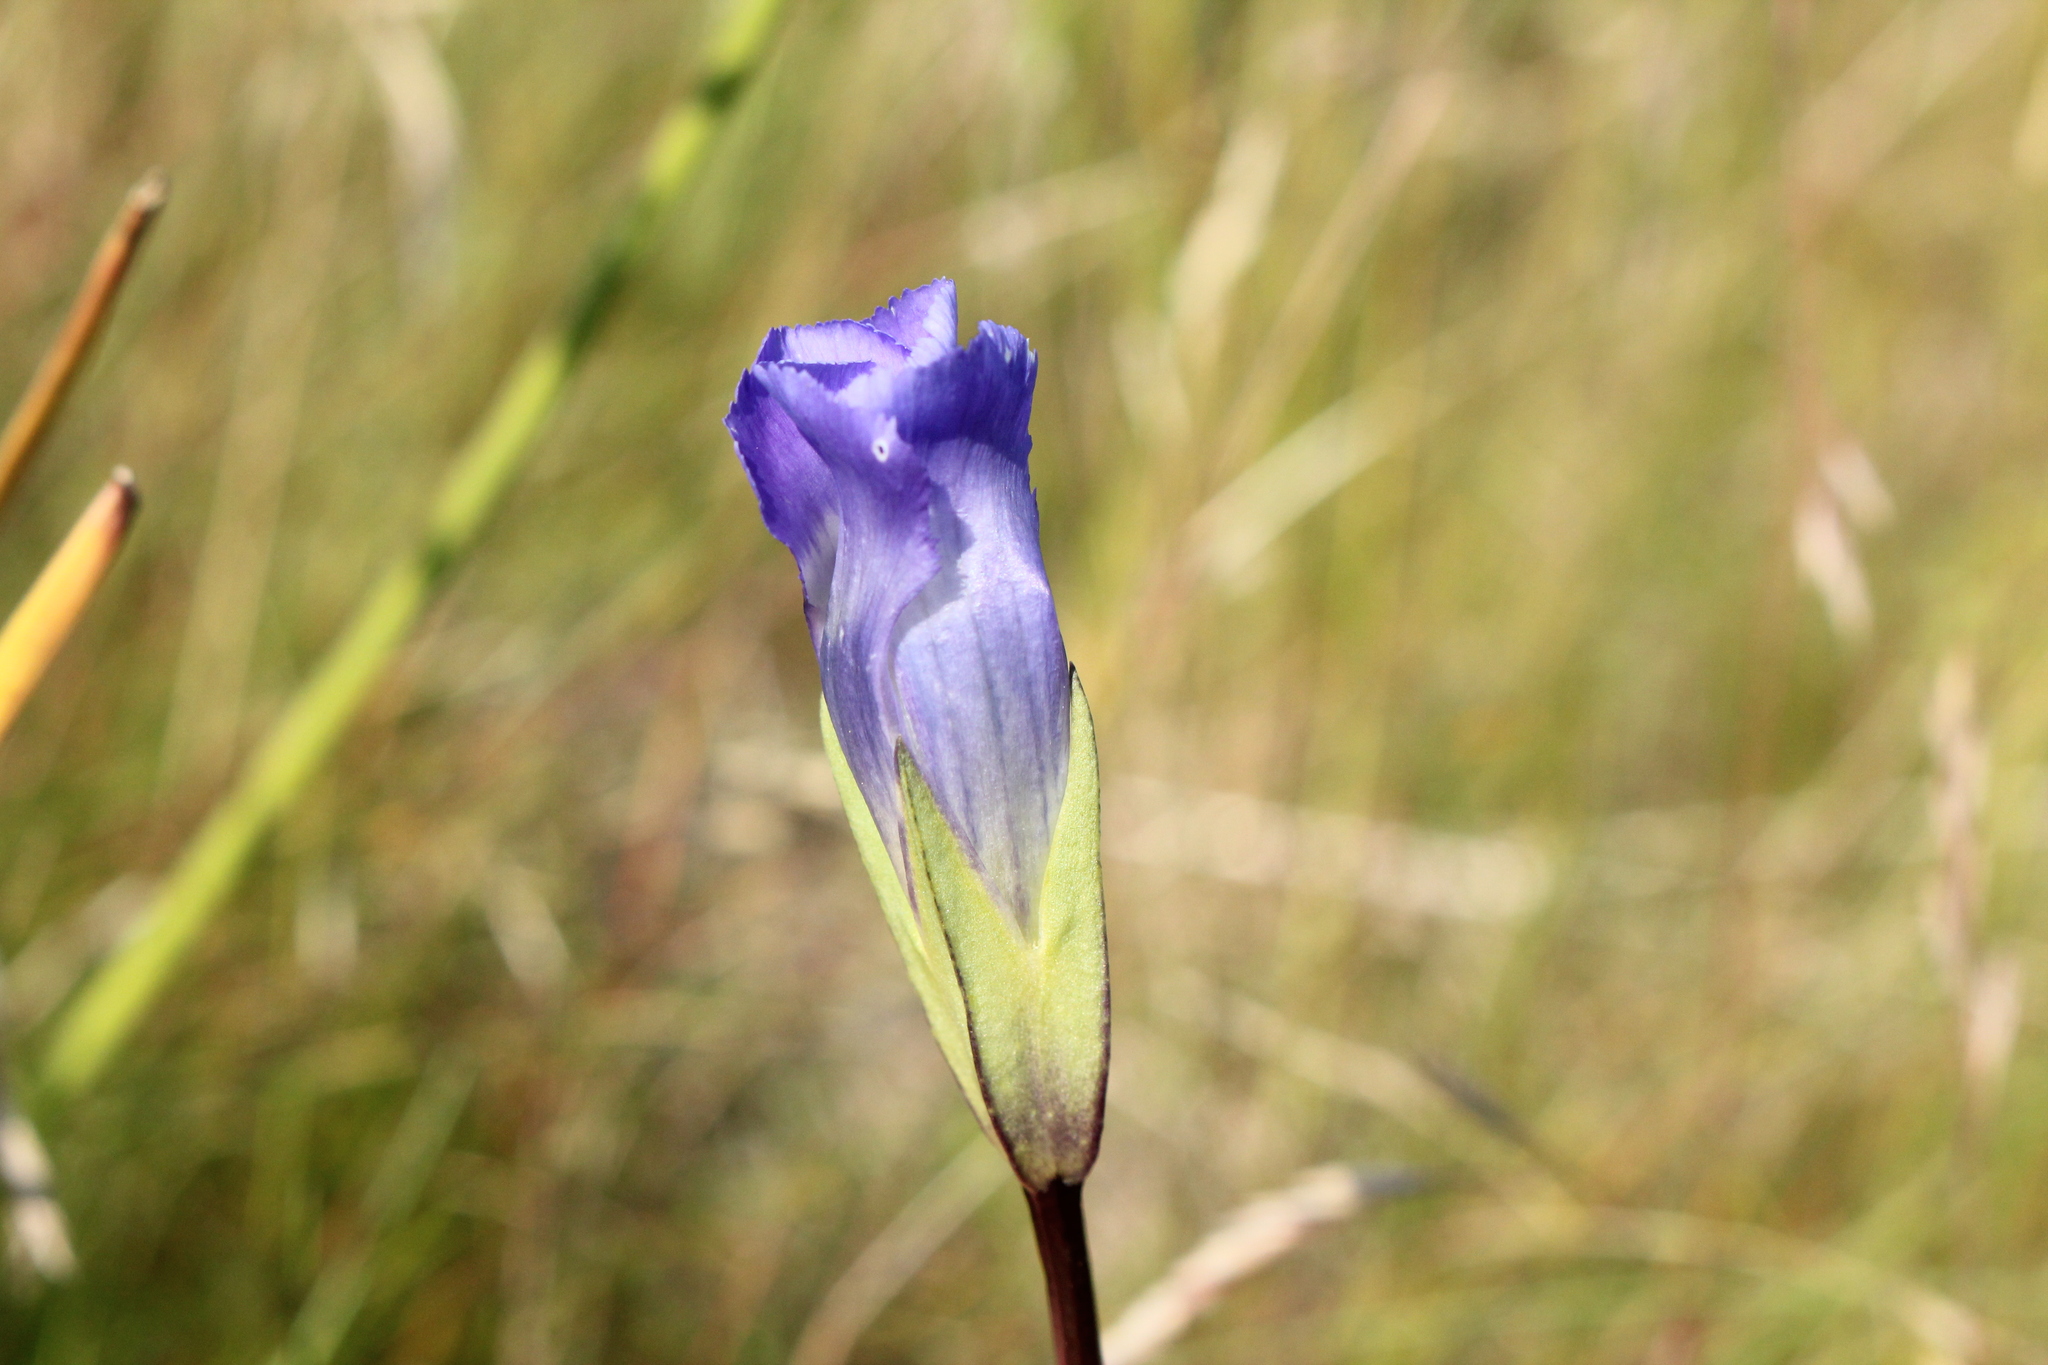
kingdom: Plantae
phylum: Tracheophyta
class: Magnoliopsida
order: Gentianales
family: Gentianaceae
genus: Gentianopsis
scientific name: Gentianopsis macounii
